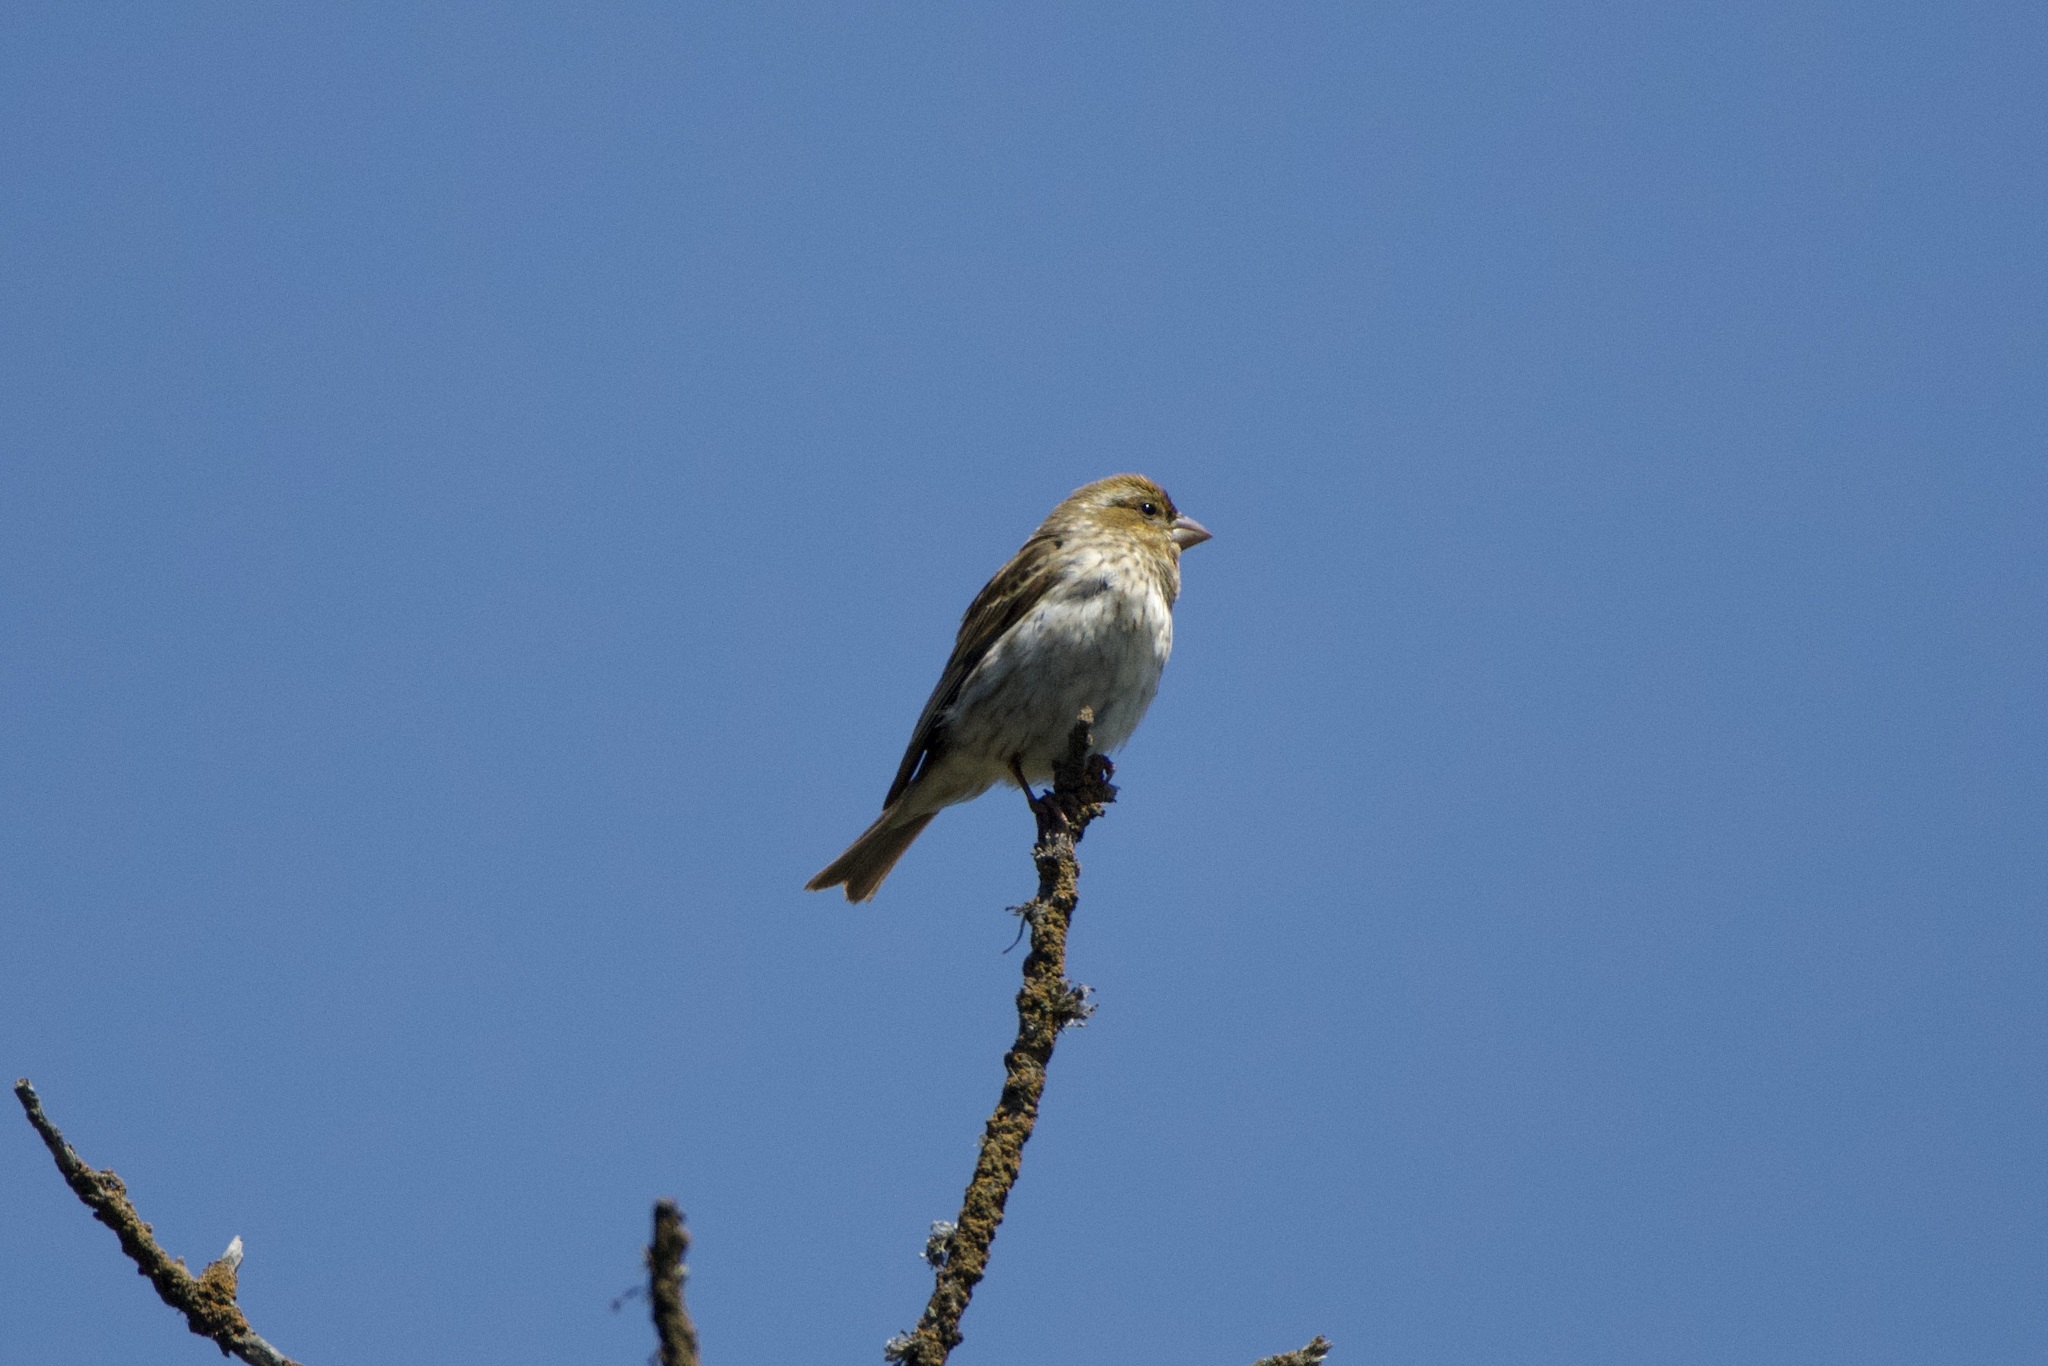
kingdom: Animalia
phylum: Chordata
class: Aves
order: Passeriformes
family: Fringillidae
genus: Haemorhous
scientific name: Haemorhous purpureus
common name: Purple finch
